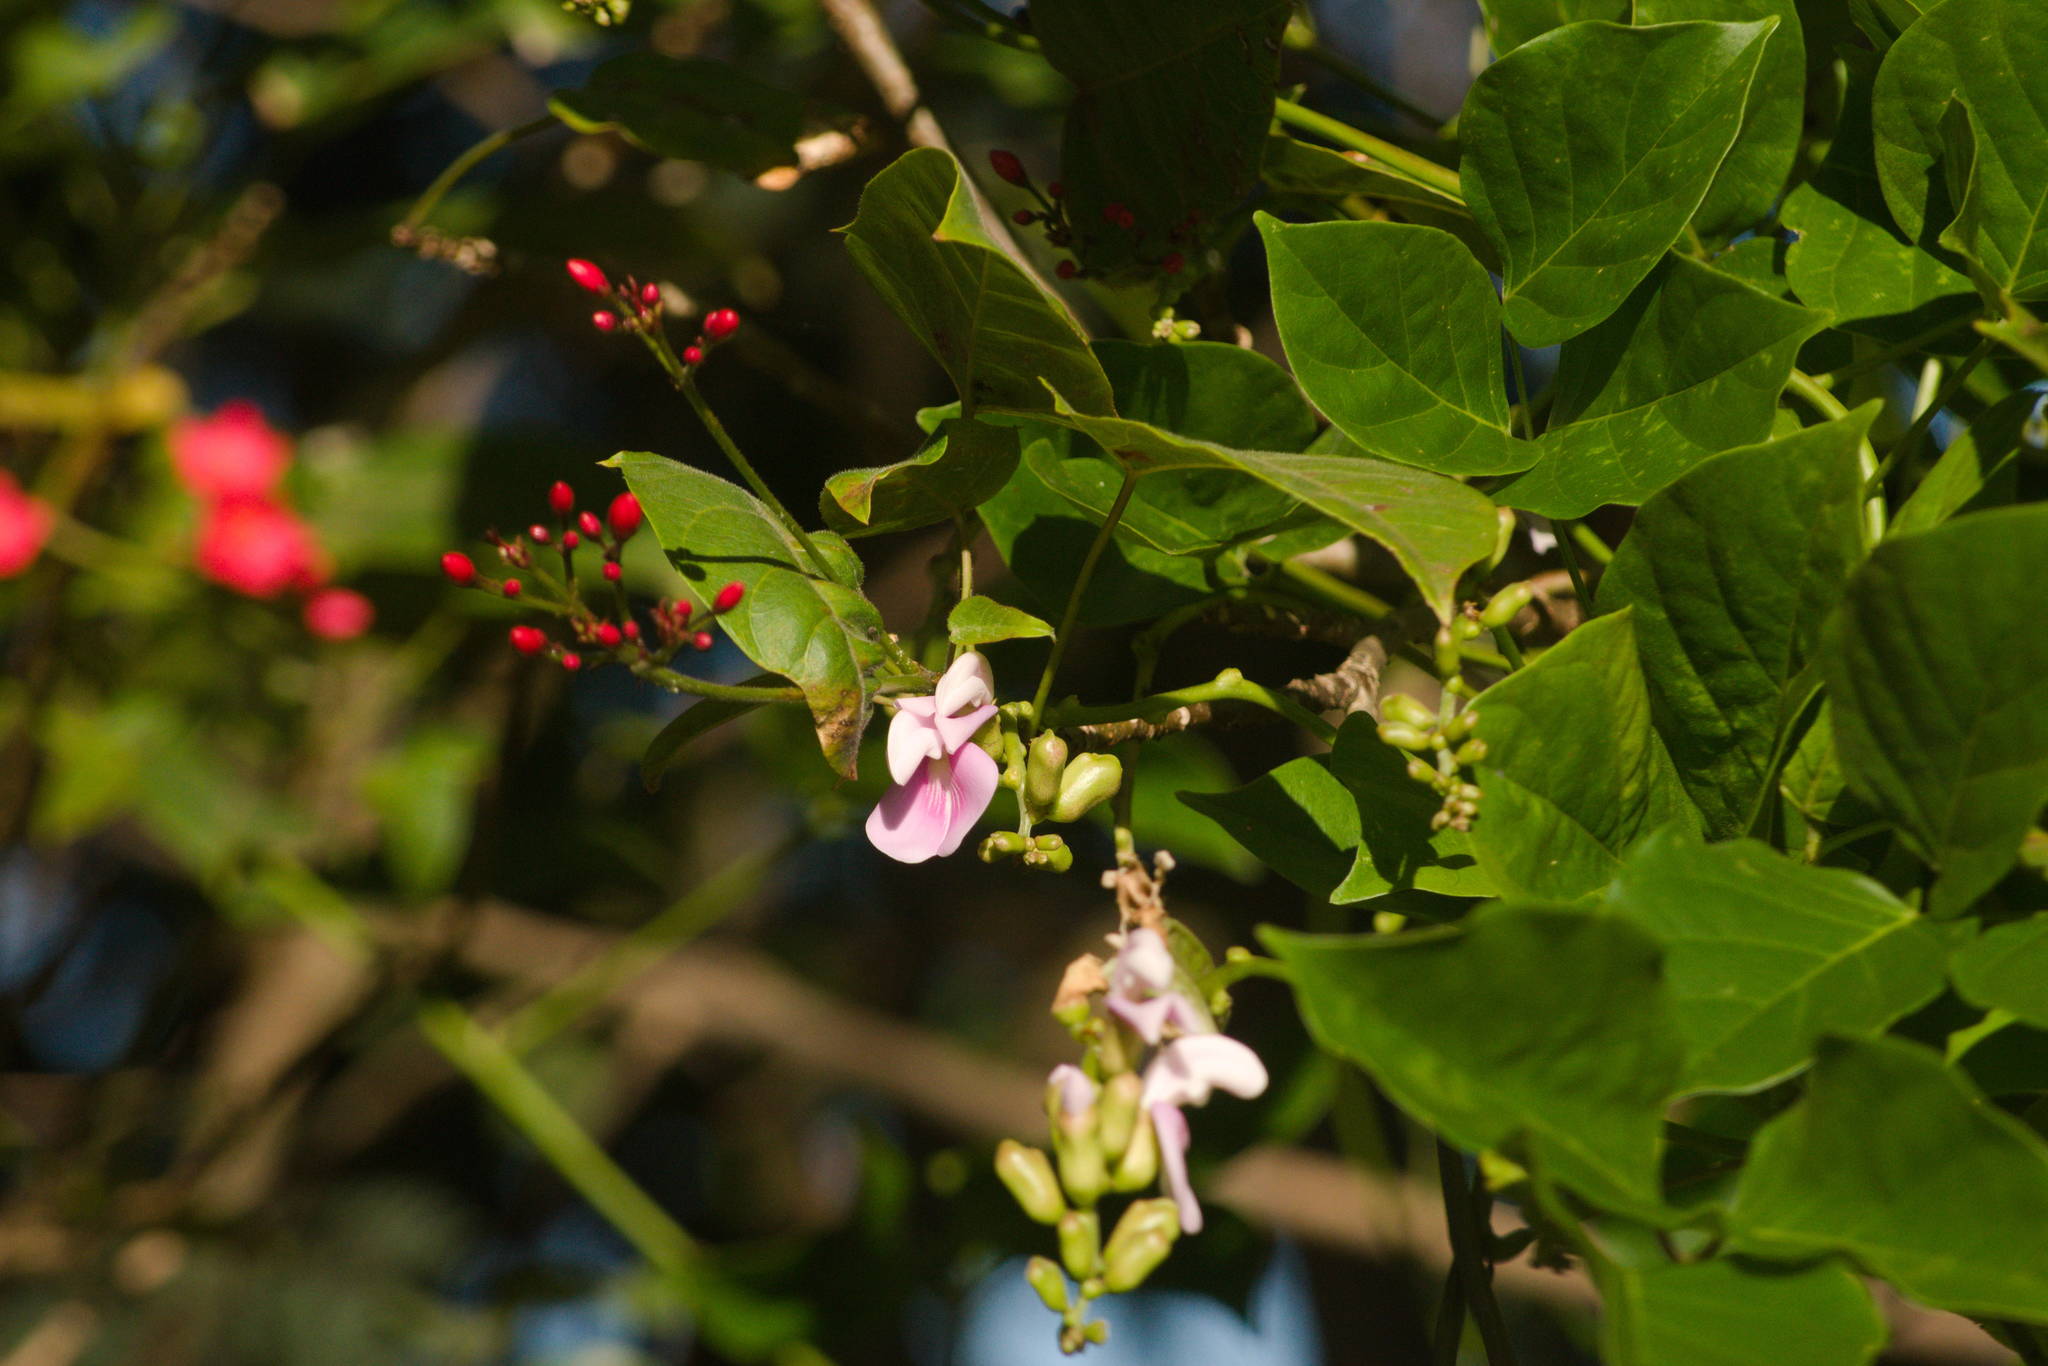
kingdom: Plantae
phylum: Tracheophyta
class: Magnoliopsida
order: Fabales
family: Fabaceae
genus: Canavalia
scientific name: Canavalia cathartica
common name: Maunaloa
